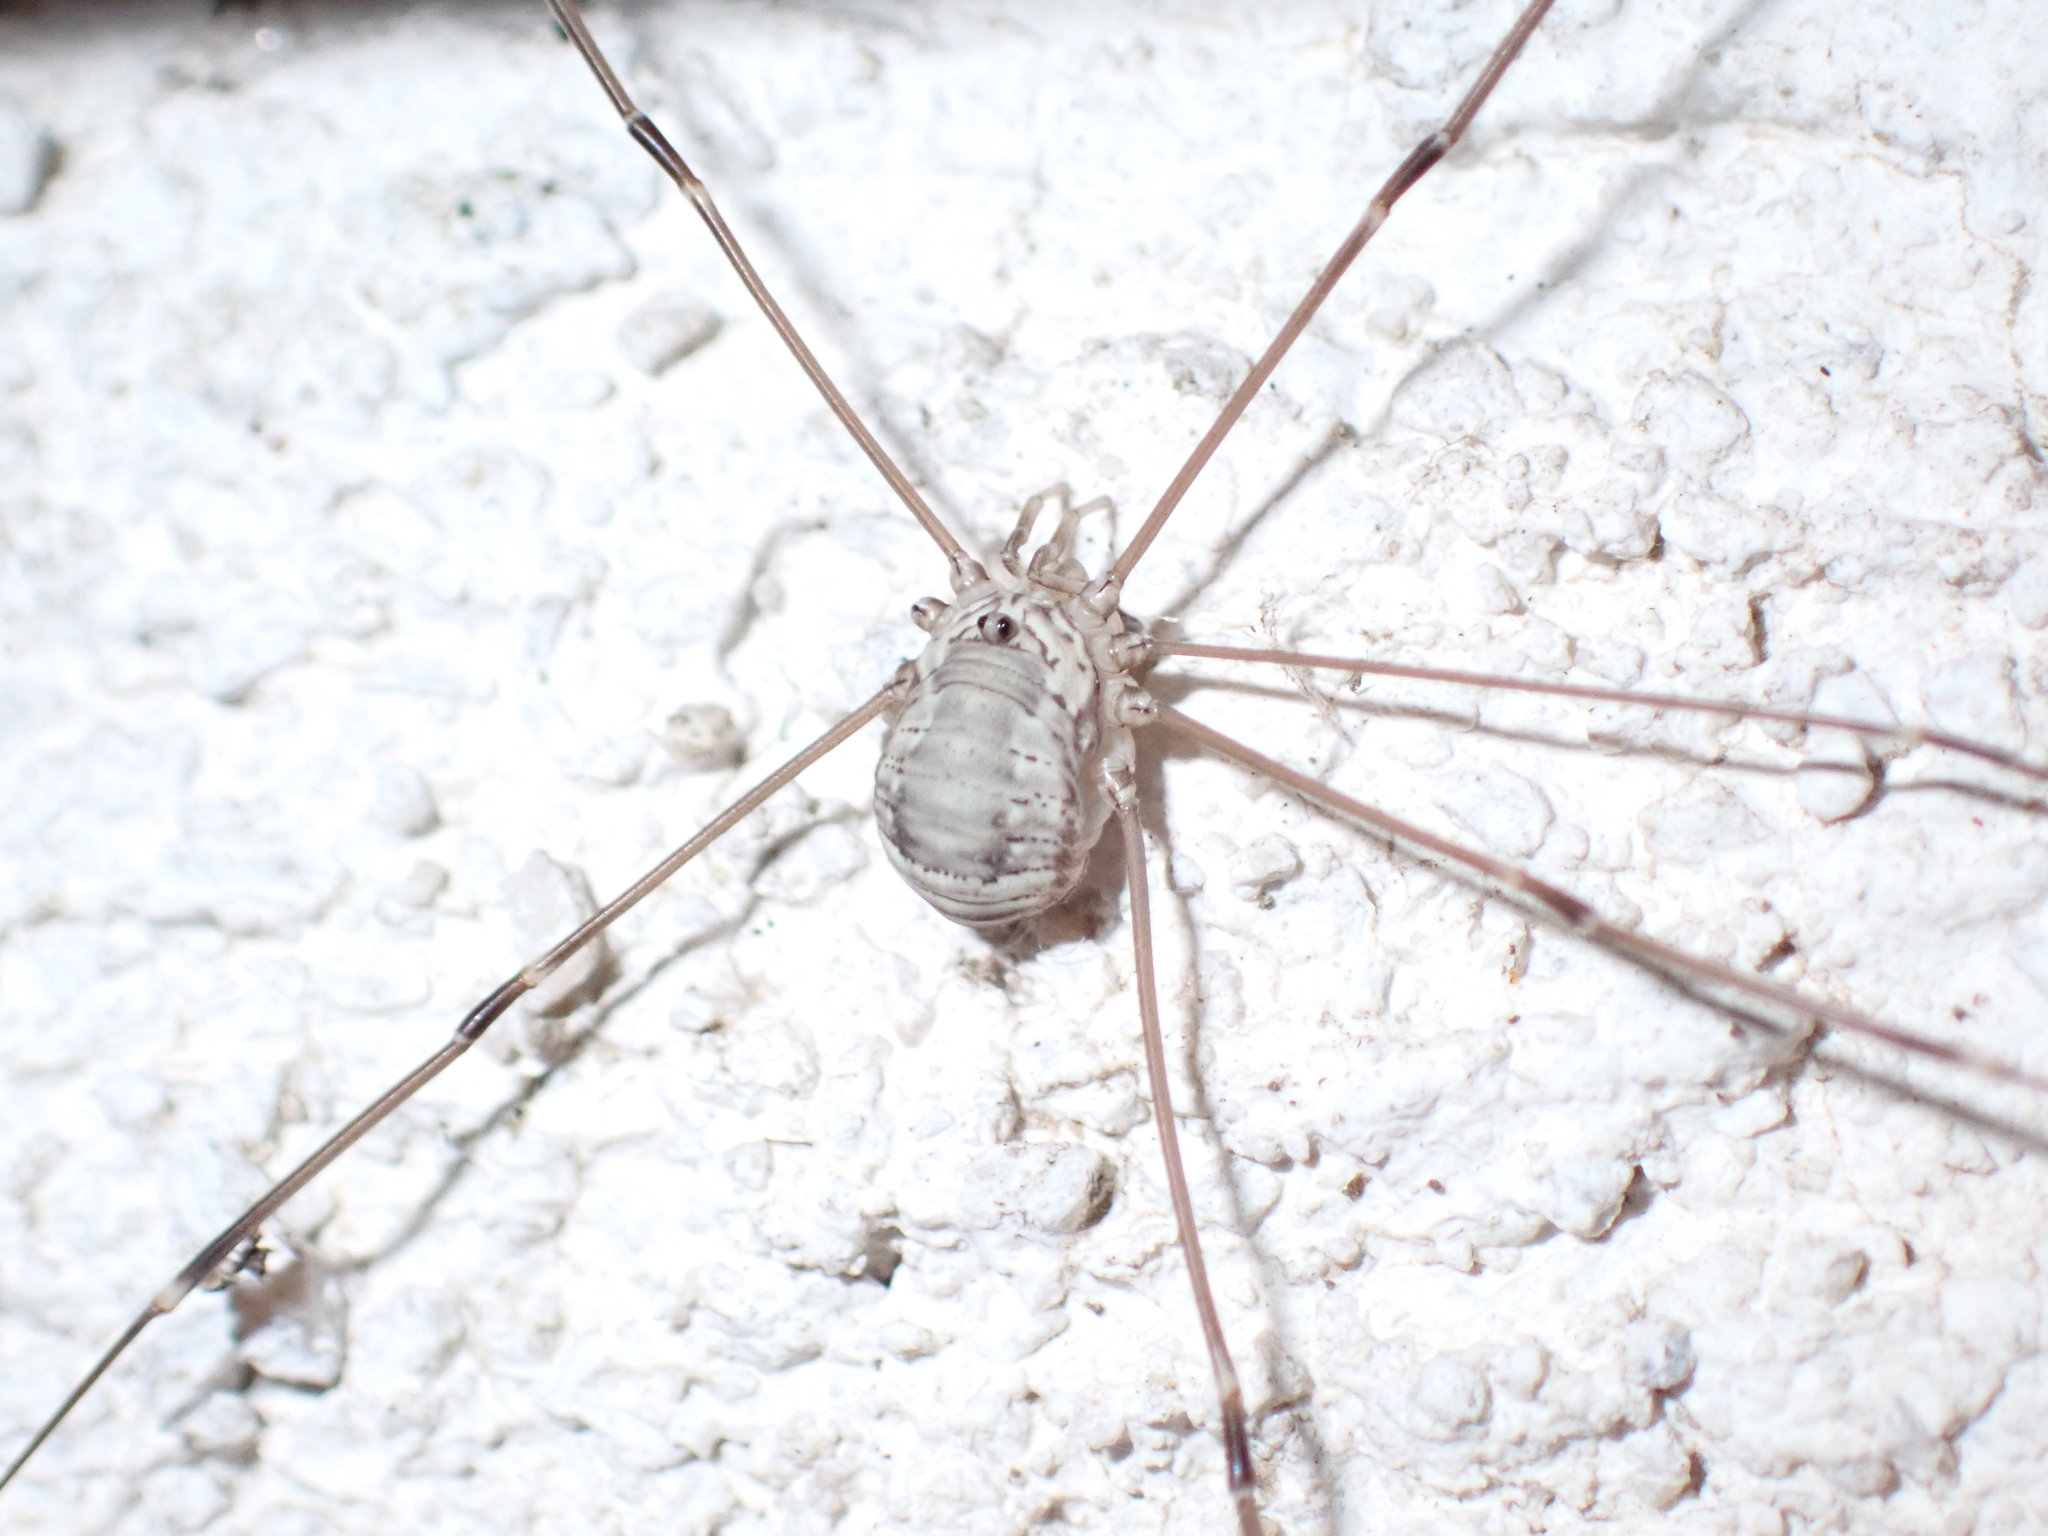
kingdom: Animalia
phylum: Arthropoda
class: Arachnida
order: Opiliones
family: Sclerosomatidae
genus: Leiobunum
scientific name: Leiobunum limbatum
